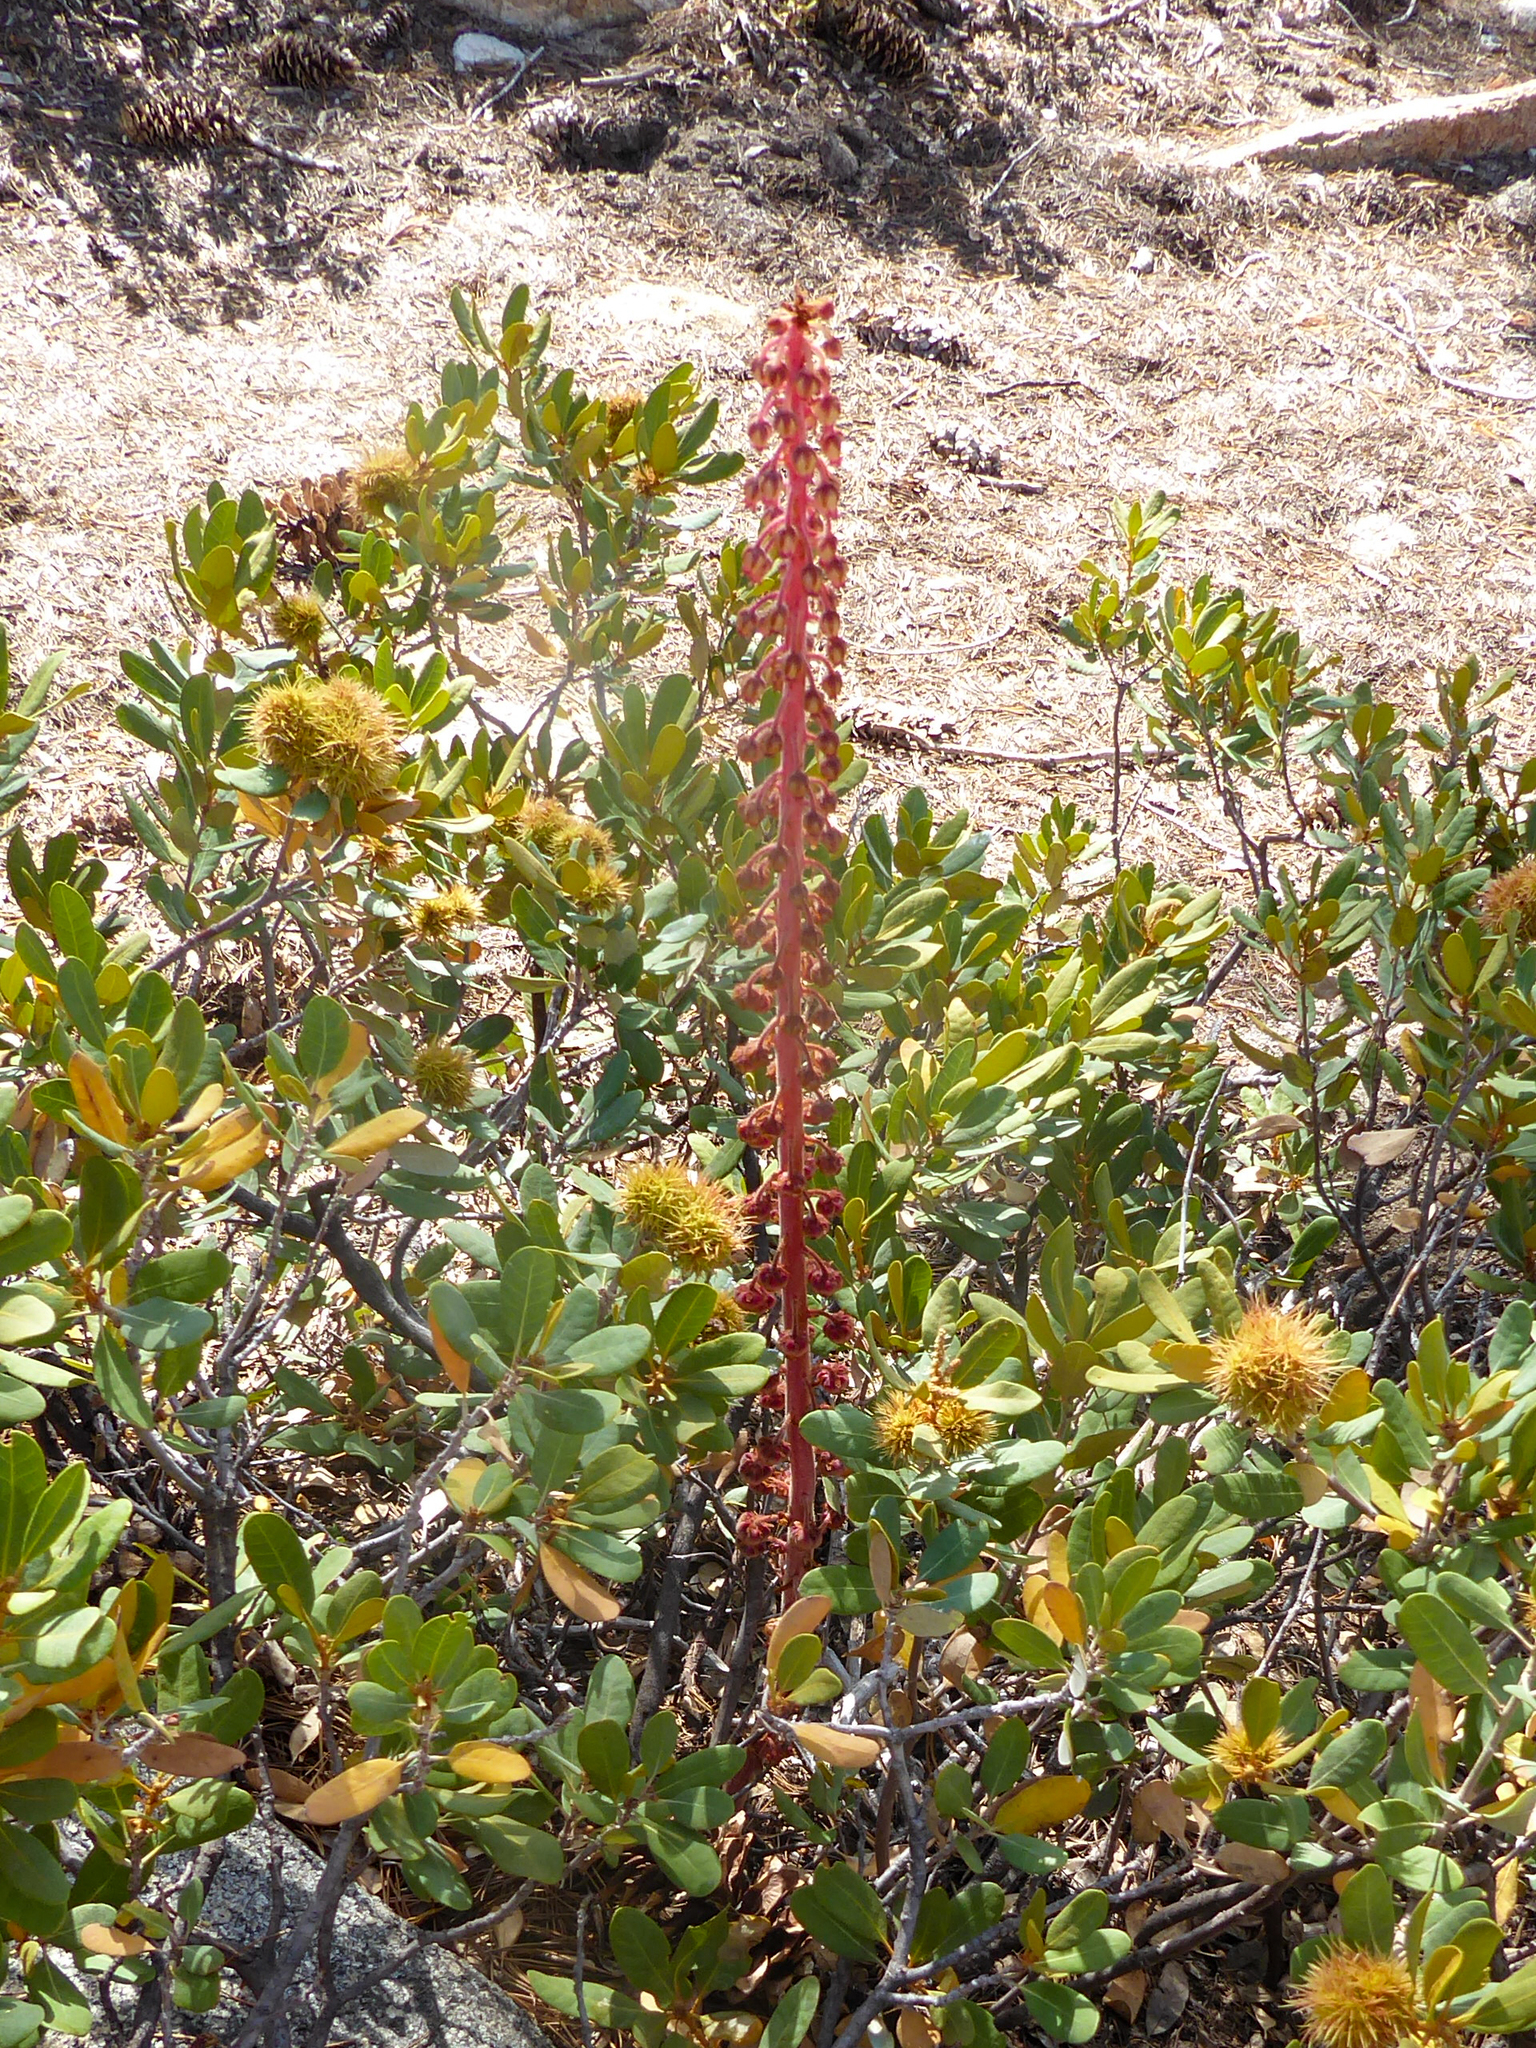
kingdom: Plantae
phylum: Tracheophyta
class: Magnoliopsida
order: Ericales
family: Ericaceae
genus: Pterospora
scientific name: Pterospora andromedea
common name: Giant bird's-nest
